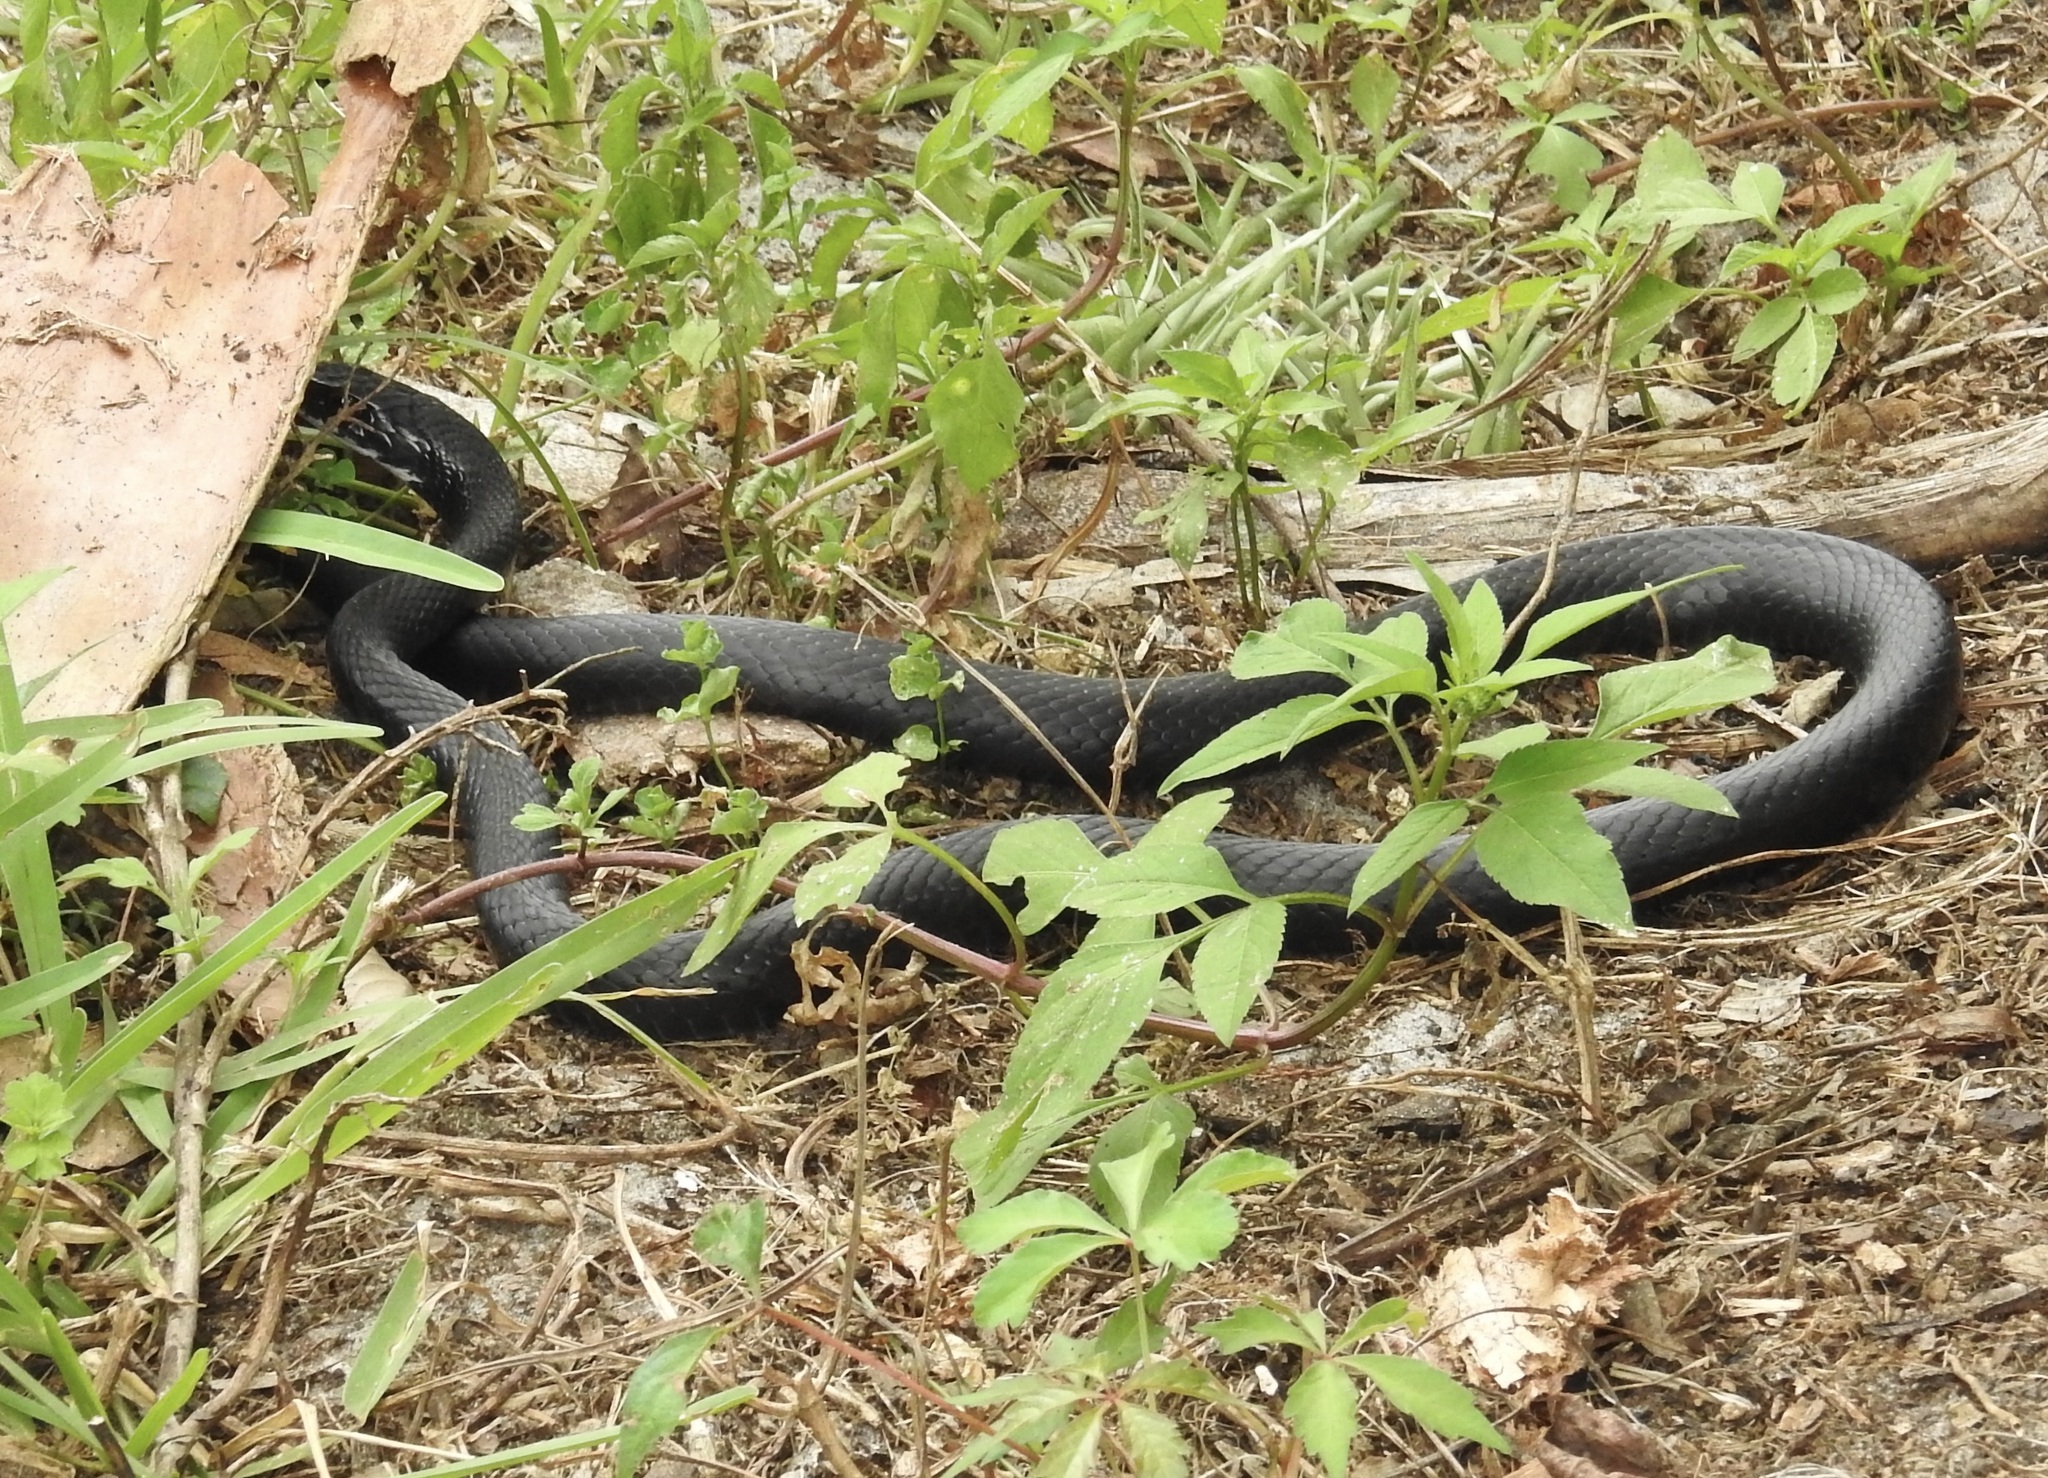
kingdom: Animalia
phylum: Chordata
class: Squamata
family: Colubridae
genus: Coluber
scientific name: Coluber constrictor
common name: Eastern racer
